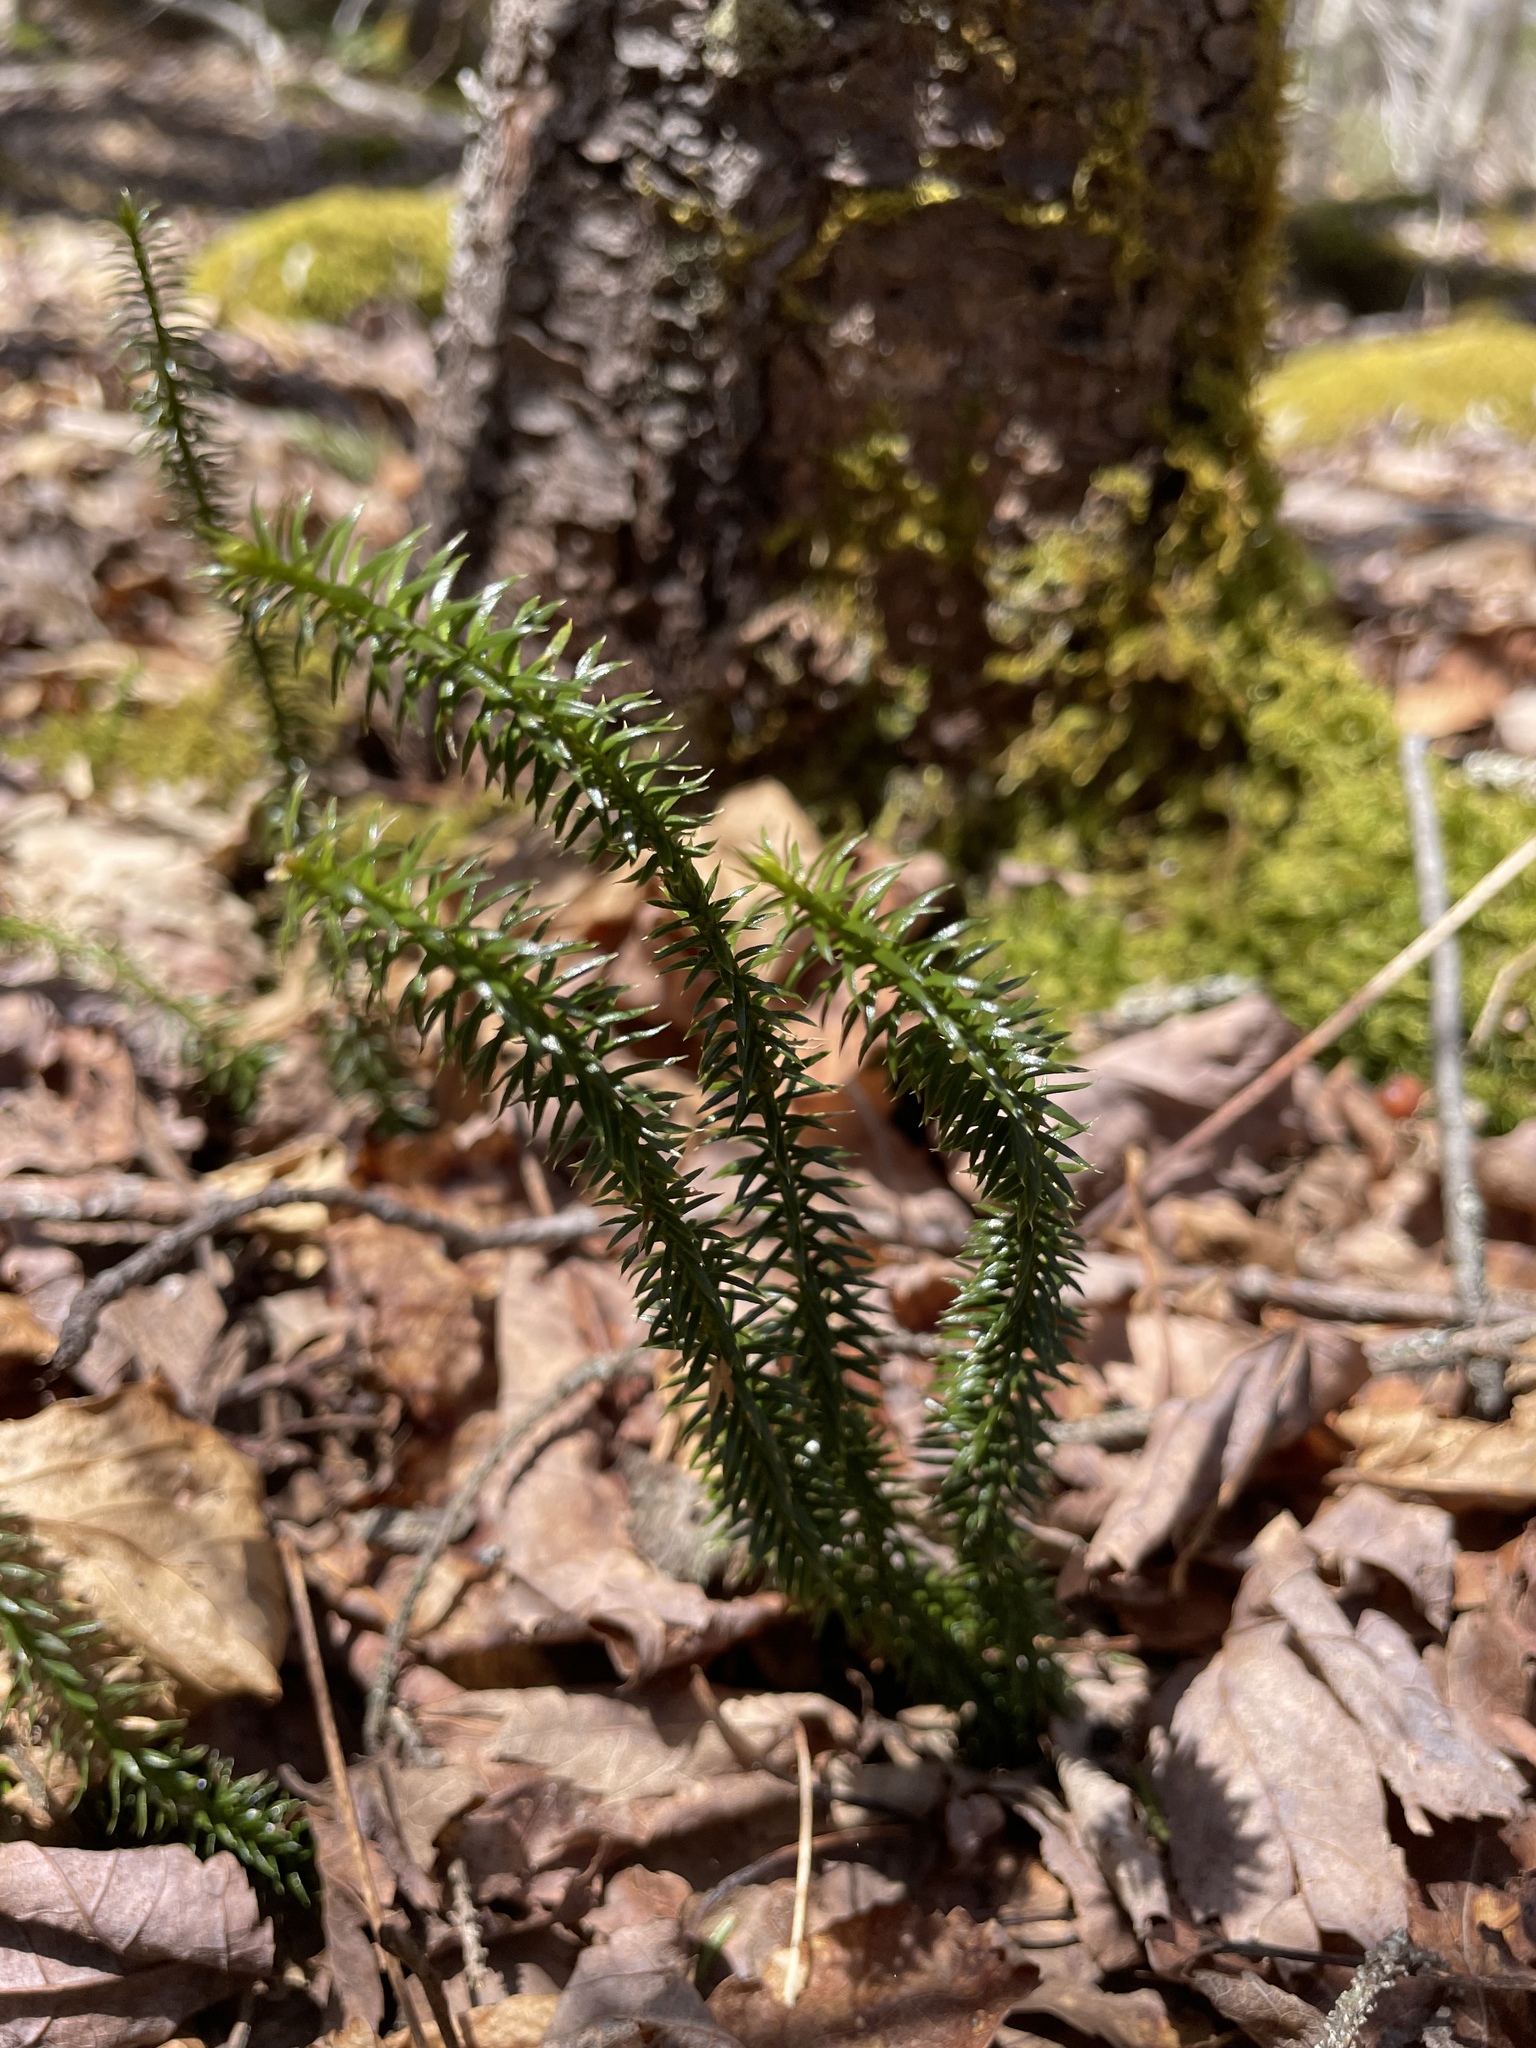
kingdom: Plantae
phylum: Tracheophyta
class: Lycopodiopsida
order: Lycopodiales
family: Lycopodiaceae
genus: Spinulum
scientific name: Spinulum annotinum
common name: Interrupted club-moss
